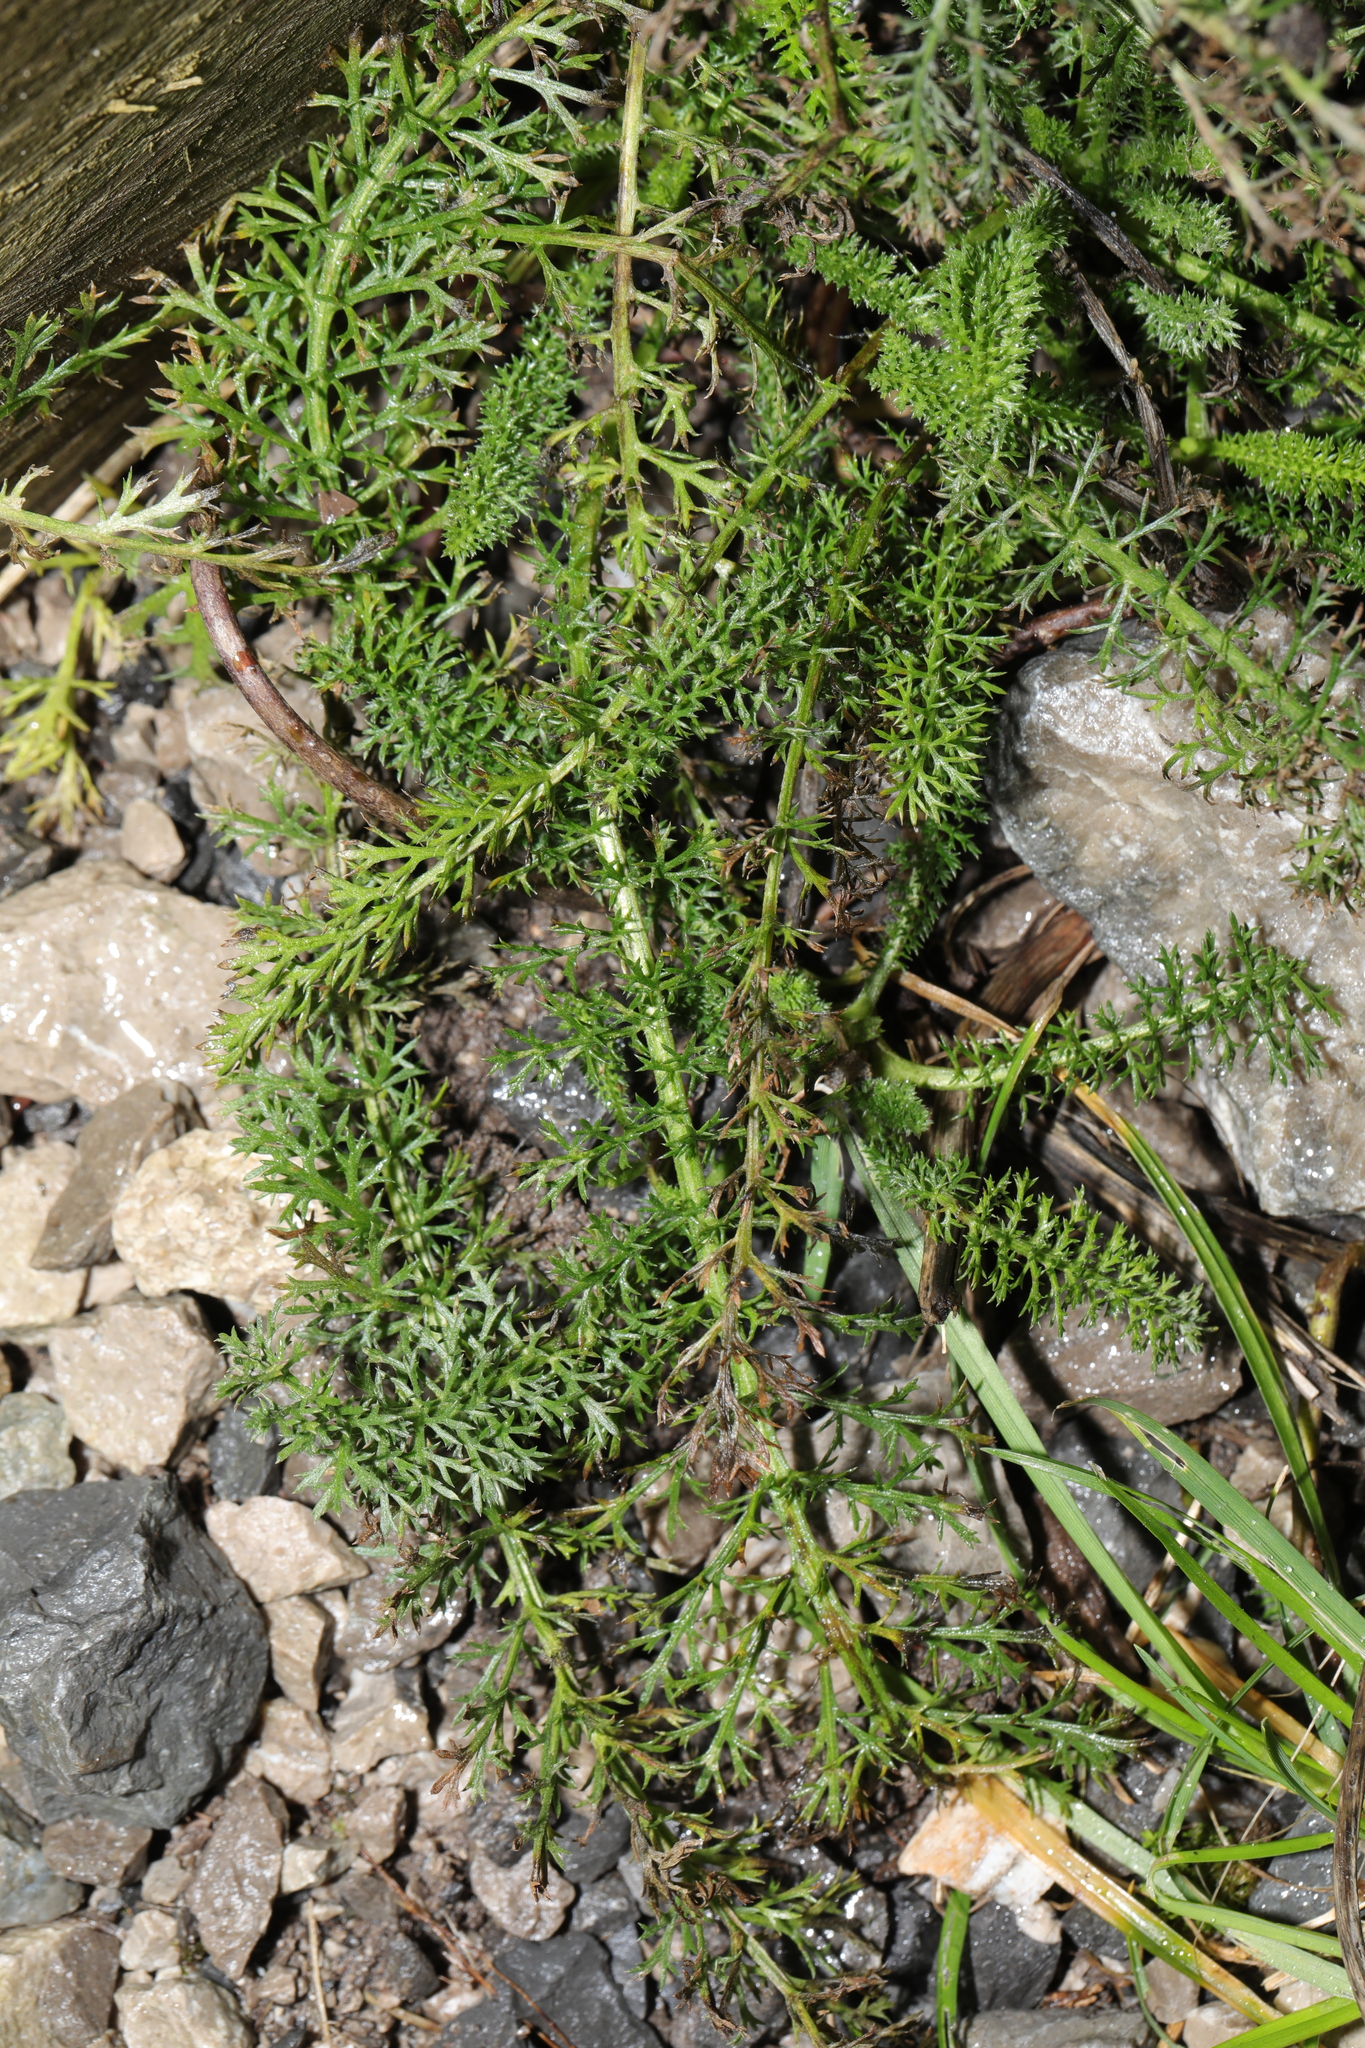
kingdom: Plantae
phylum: Tracheophyta
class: Magnoliopsida
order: Asterales
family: Asteraceae
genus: Achillea
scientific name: Achillea millefolium
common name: Yarrow
